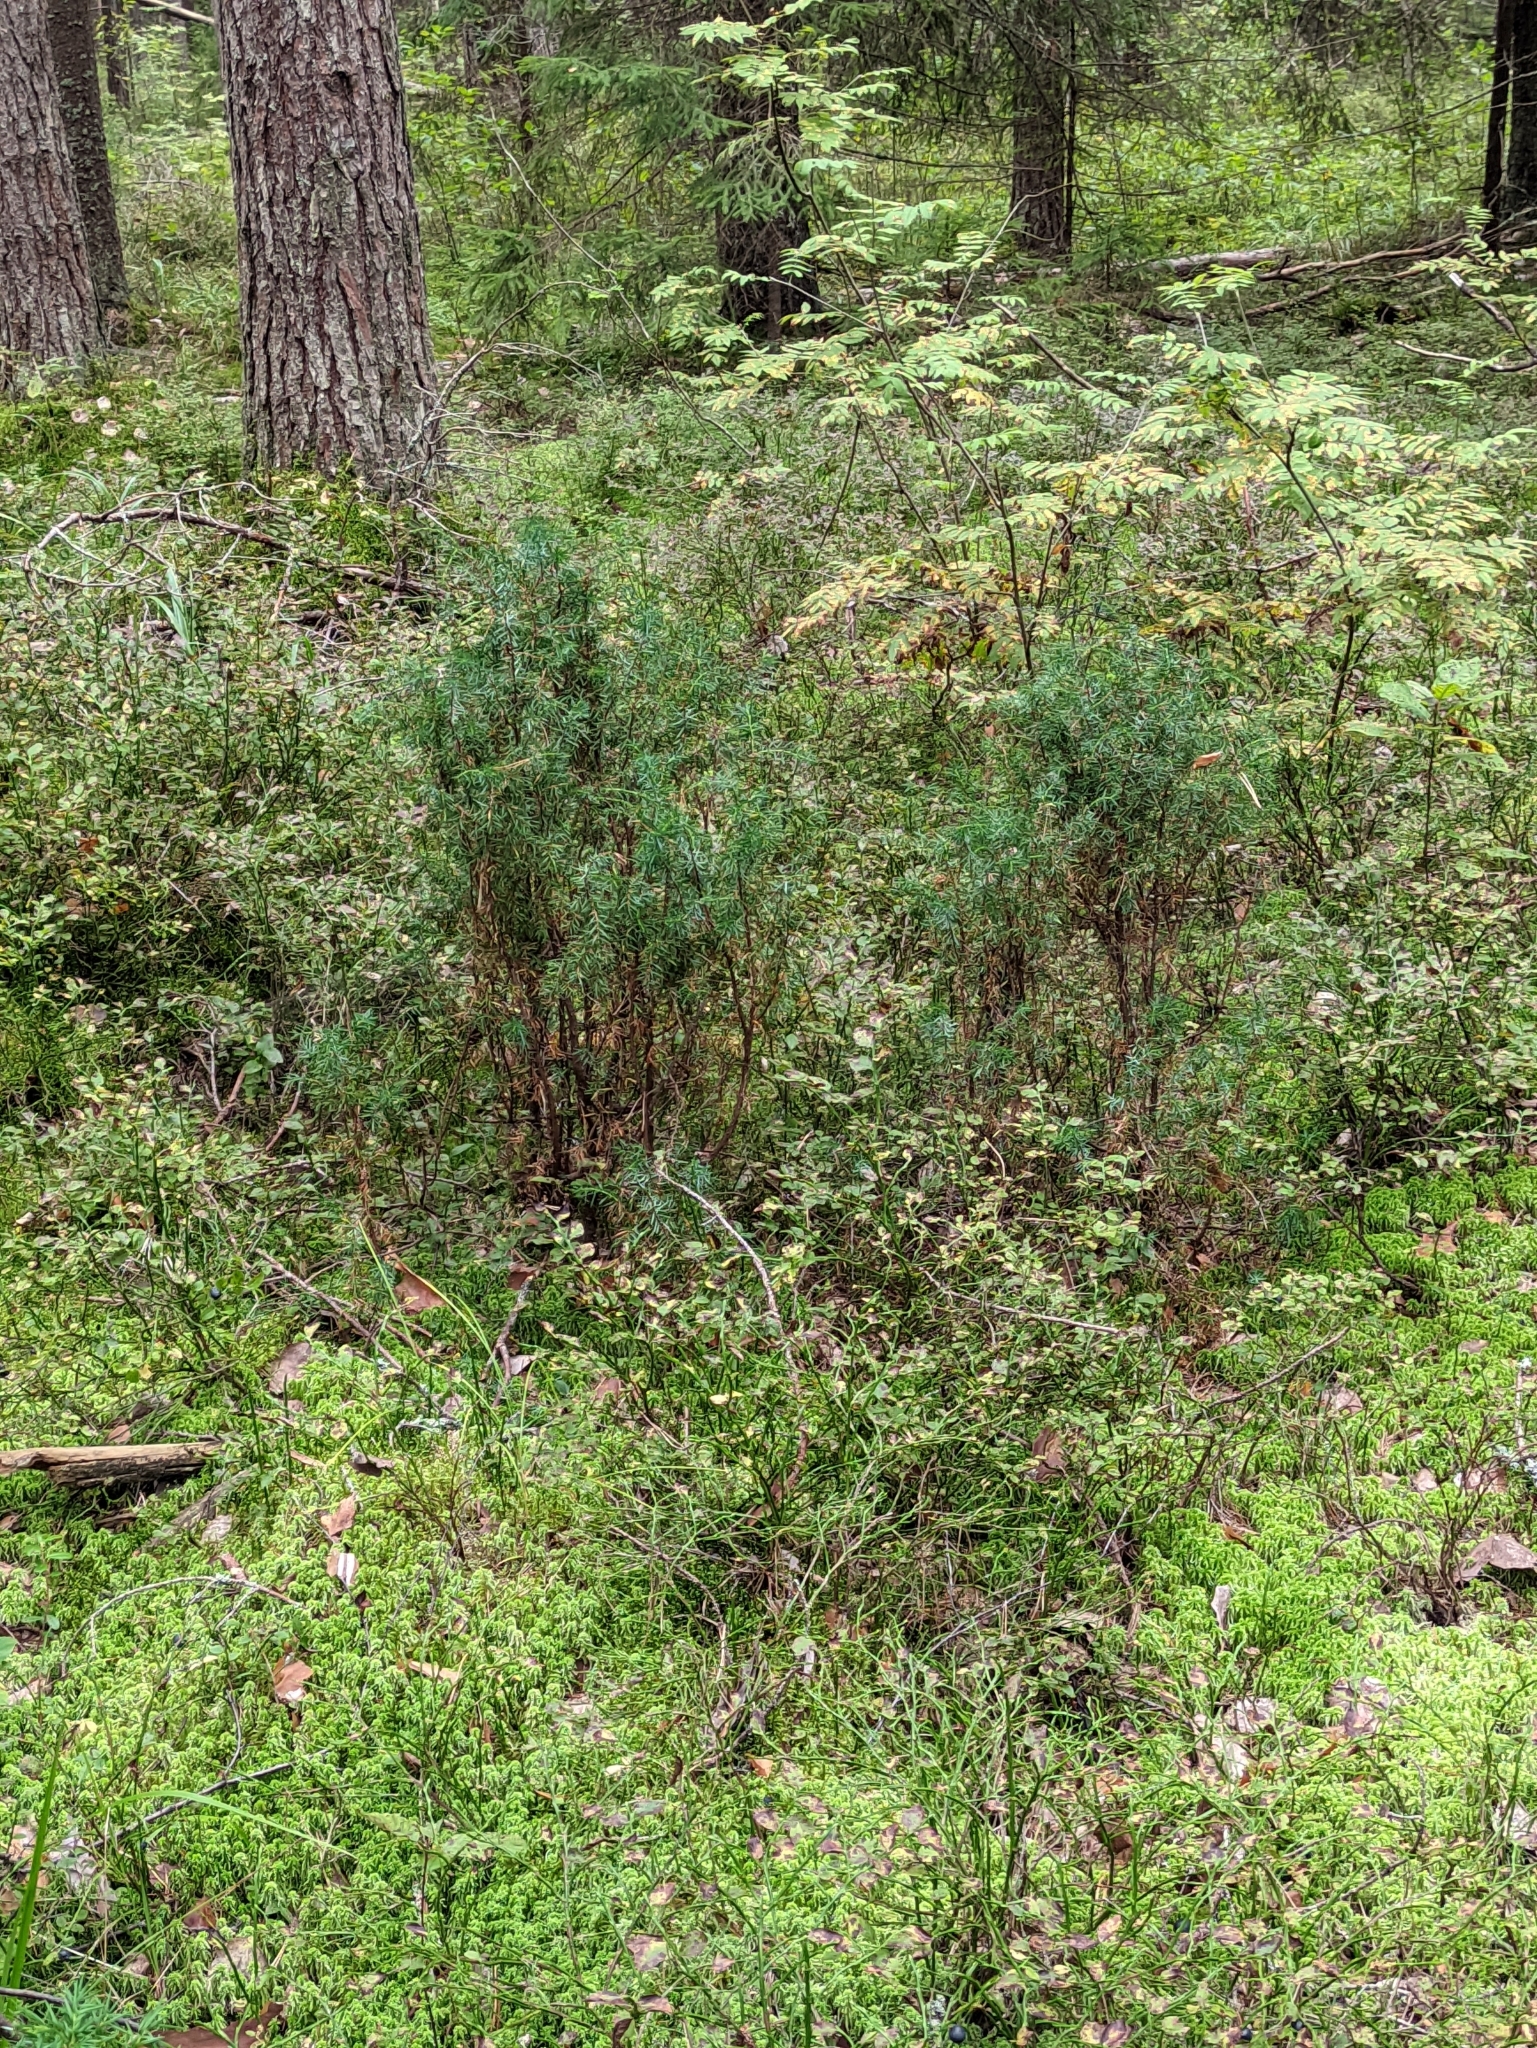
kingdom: Plantae
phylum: Tracheophyta
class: Pinopsida
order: Pinales
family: Cupressaceae
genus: Juniperus
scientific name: Juniperus communis
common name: Common juniper
